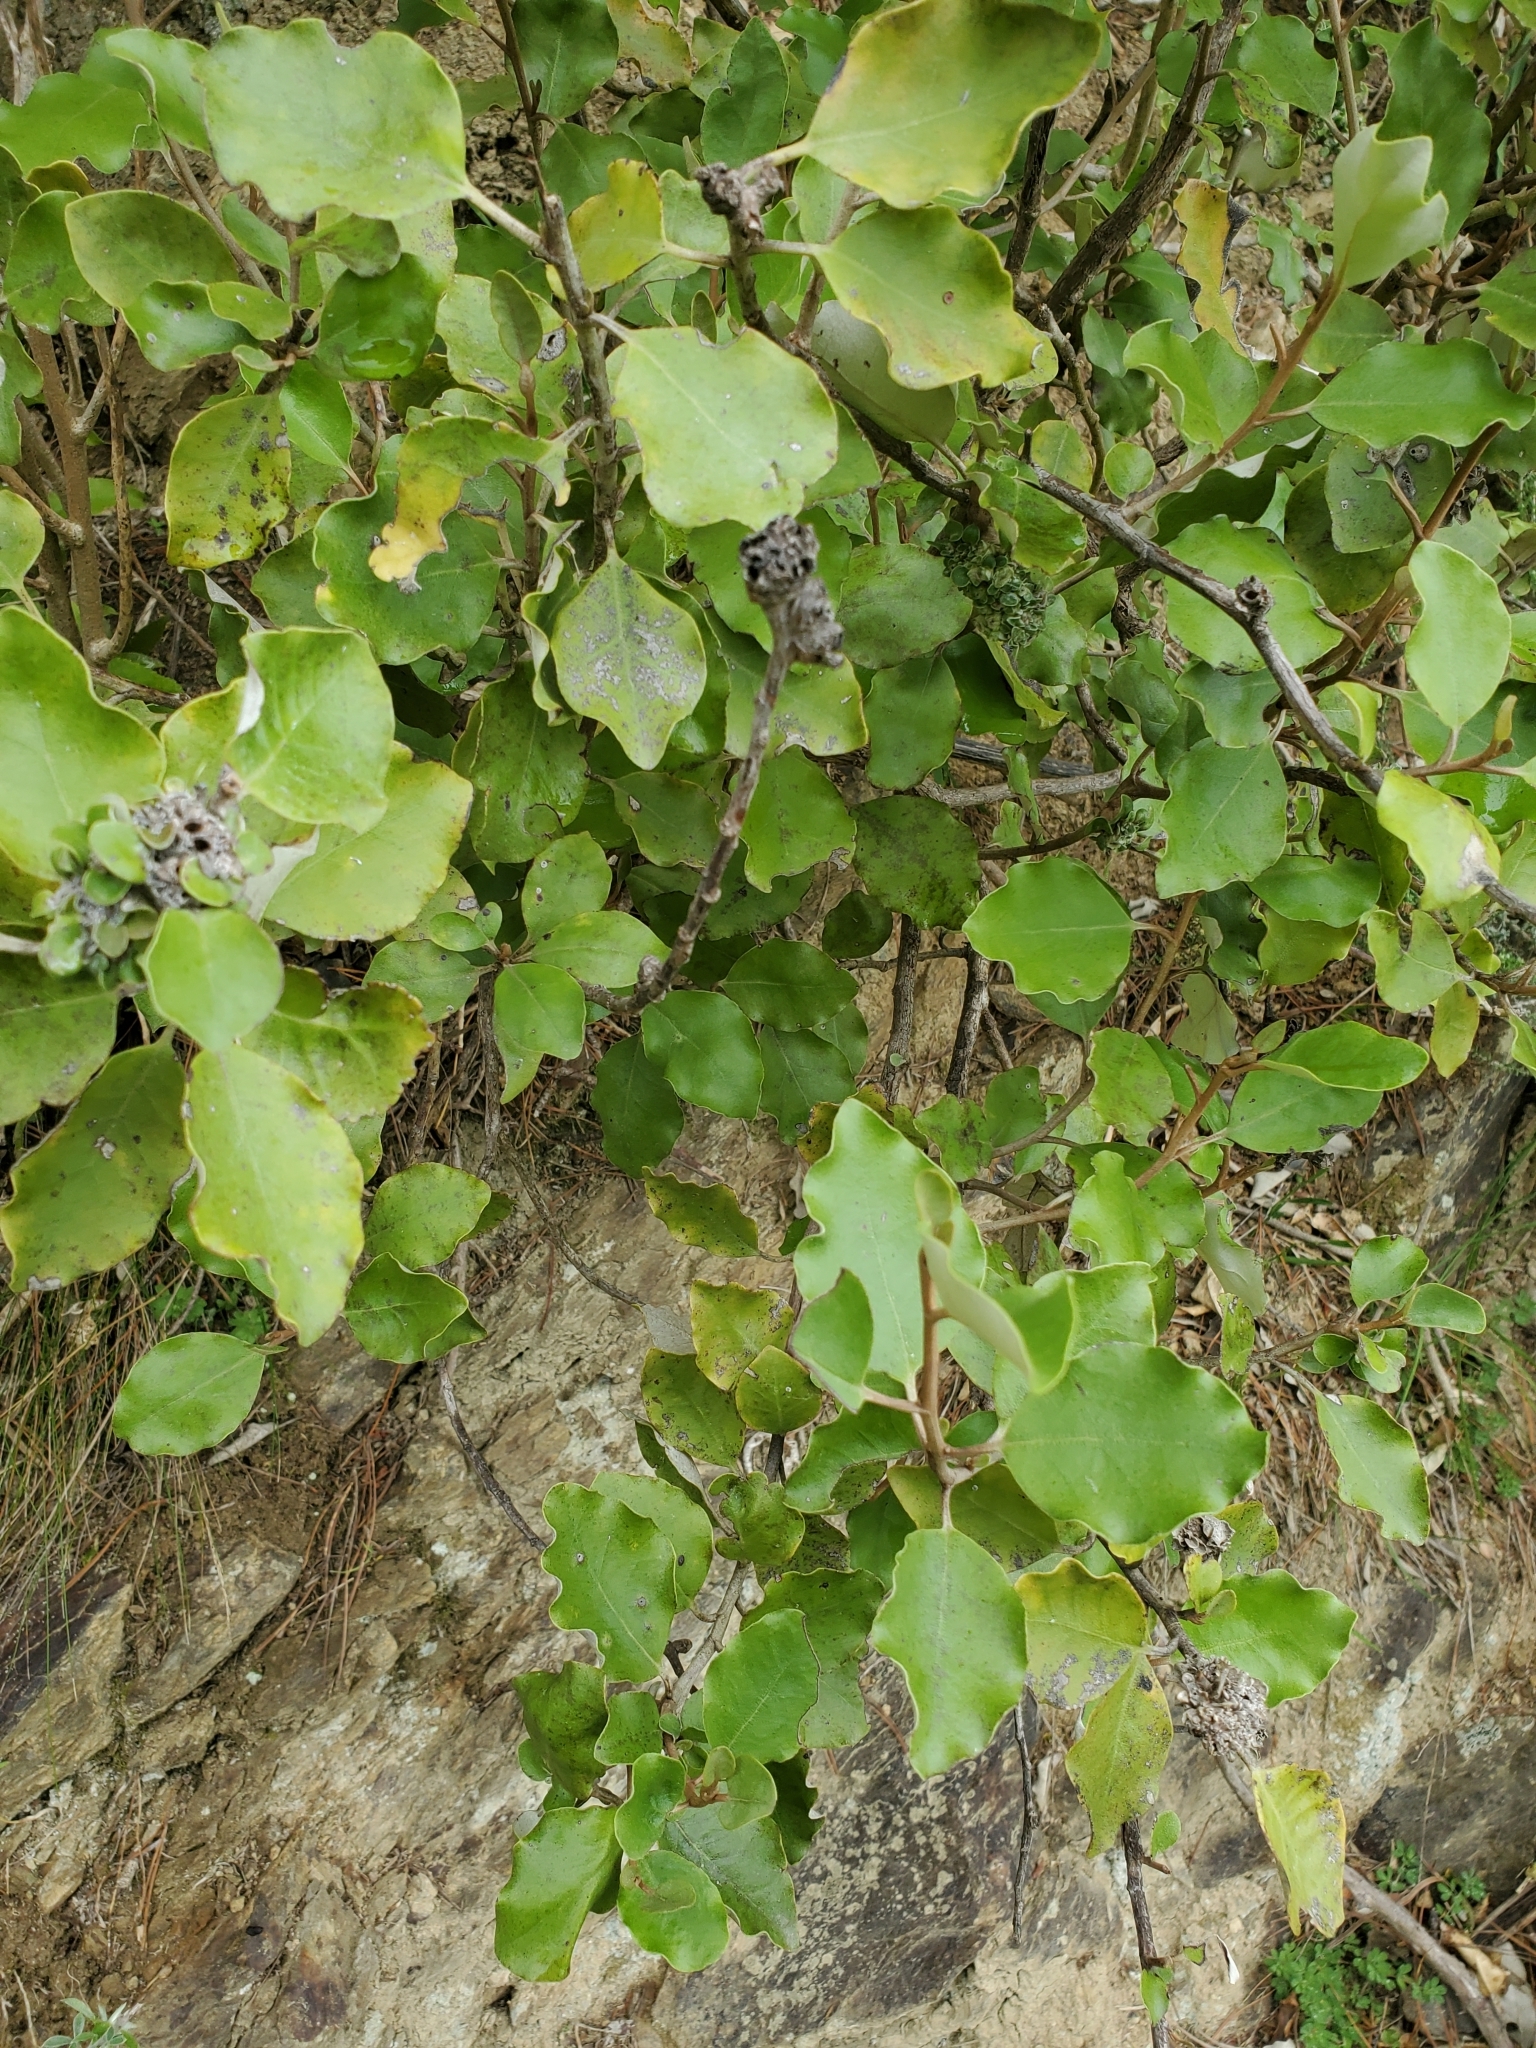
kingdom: Plantae
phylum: Tracheophyta
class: Magnoliopsida
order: Asterales
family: Asteraceae
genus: Olearia
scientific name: Olearia paniculata
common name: Akiraho
